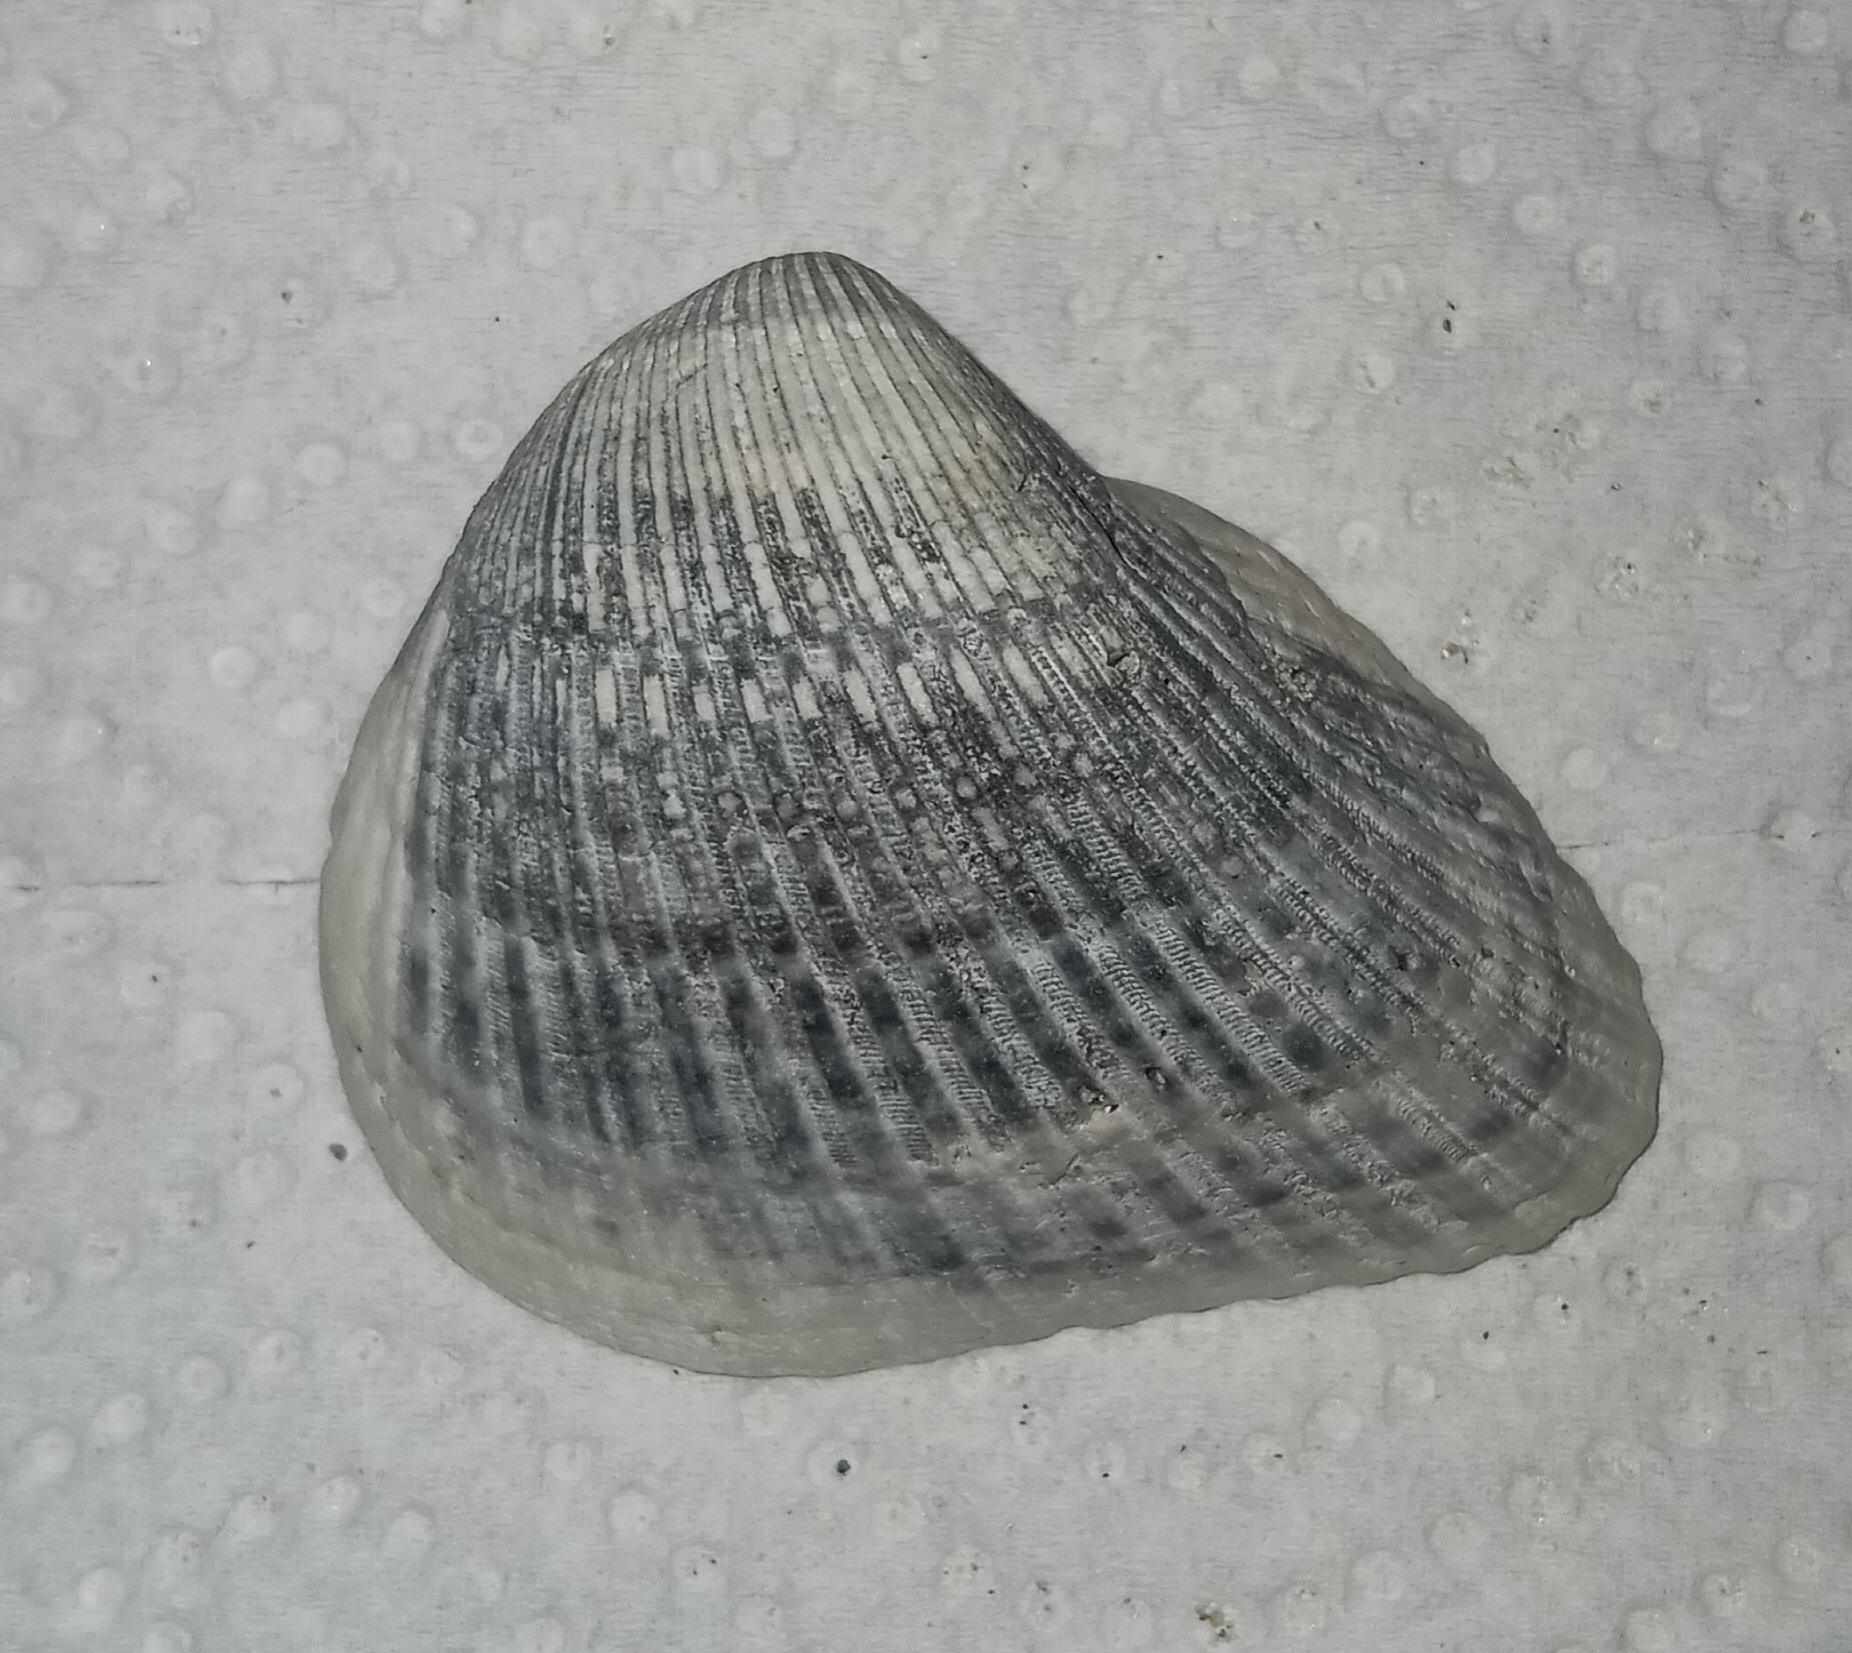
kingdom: Animalia
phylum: Mollusca
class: Bivalvia
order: Arcida
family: Noetiidae
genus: Noetia
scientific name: Noetia ponderosa
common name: Ponderous ark
